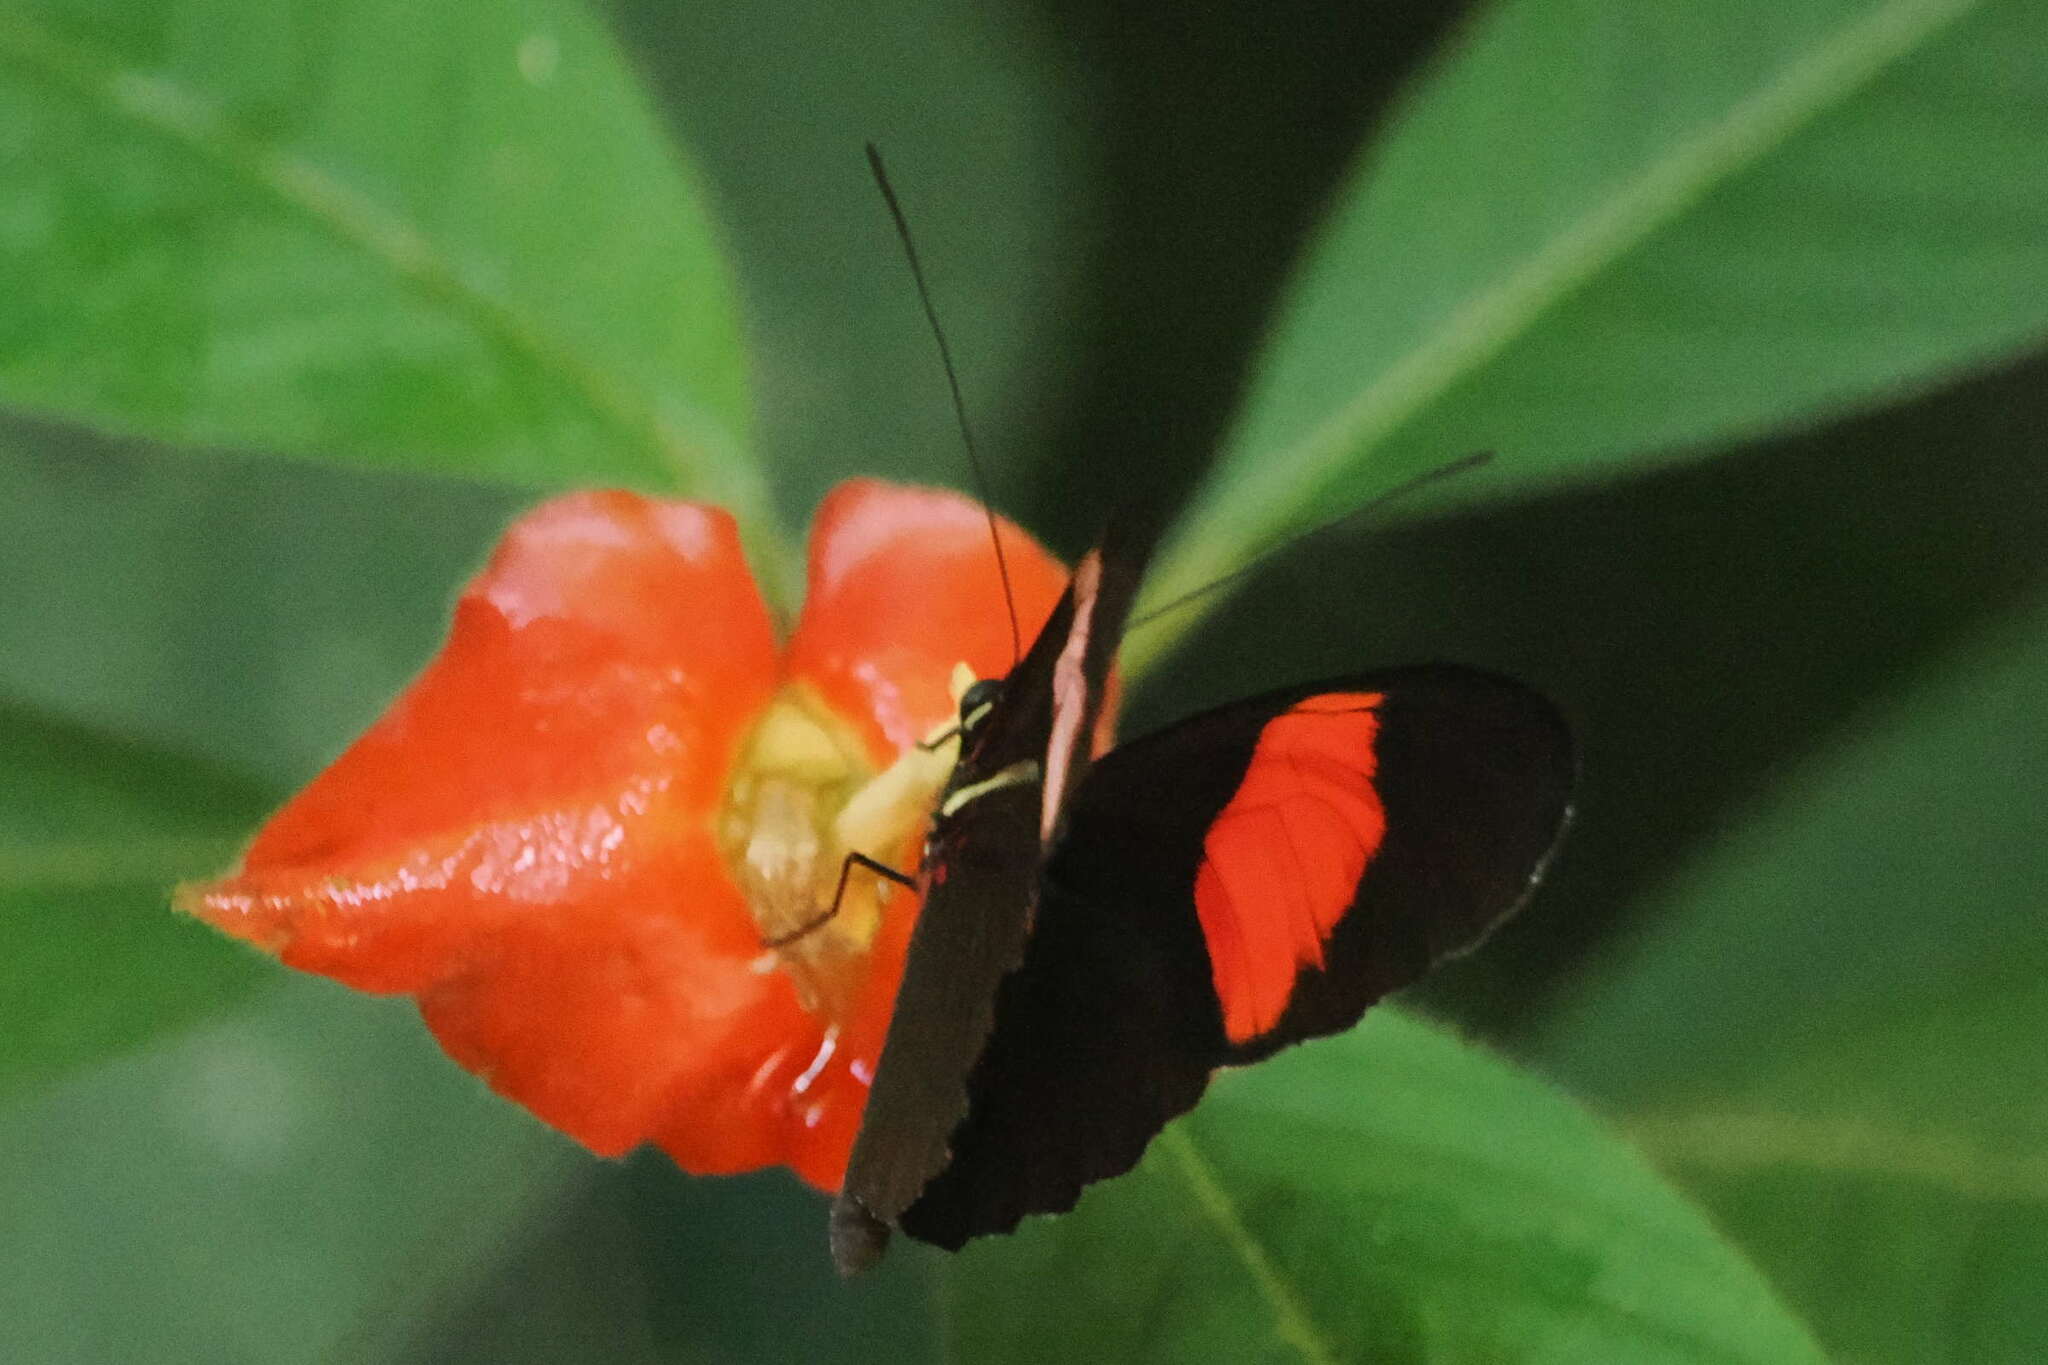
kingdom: Animalia
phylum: Arthropoda
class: Insecta
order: Lepidoptera
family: Nymphalidae
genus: Heliconius
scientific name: Heliconius melpomene
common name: Postman
